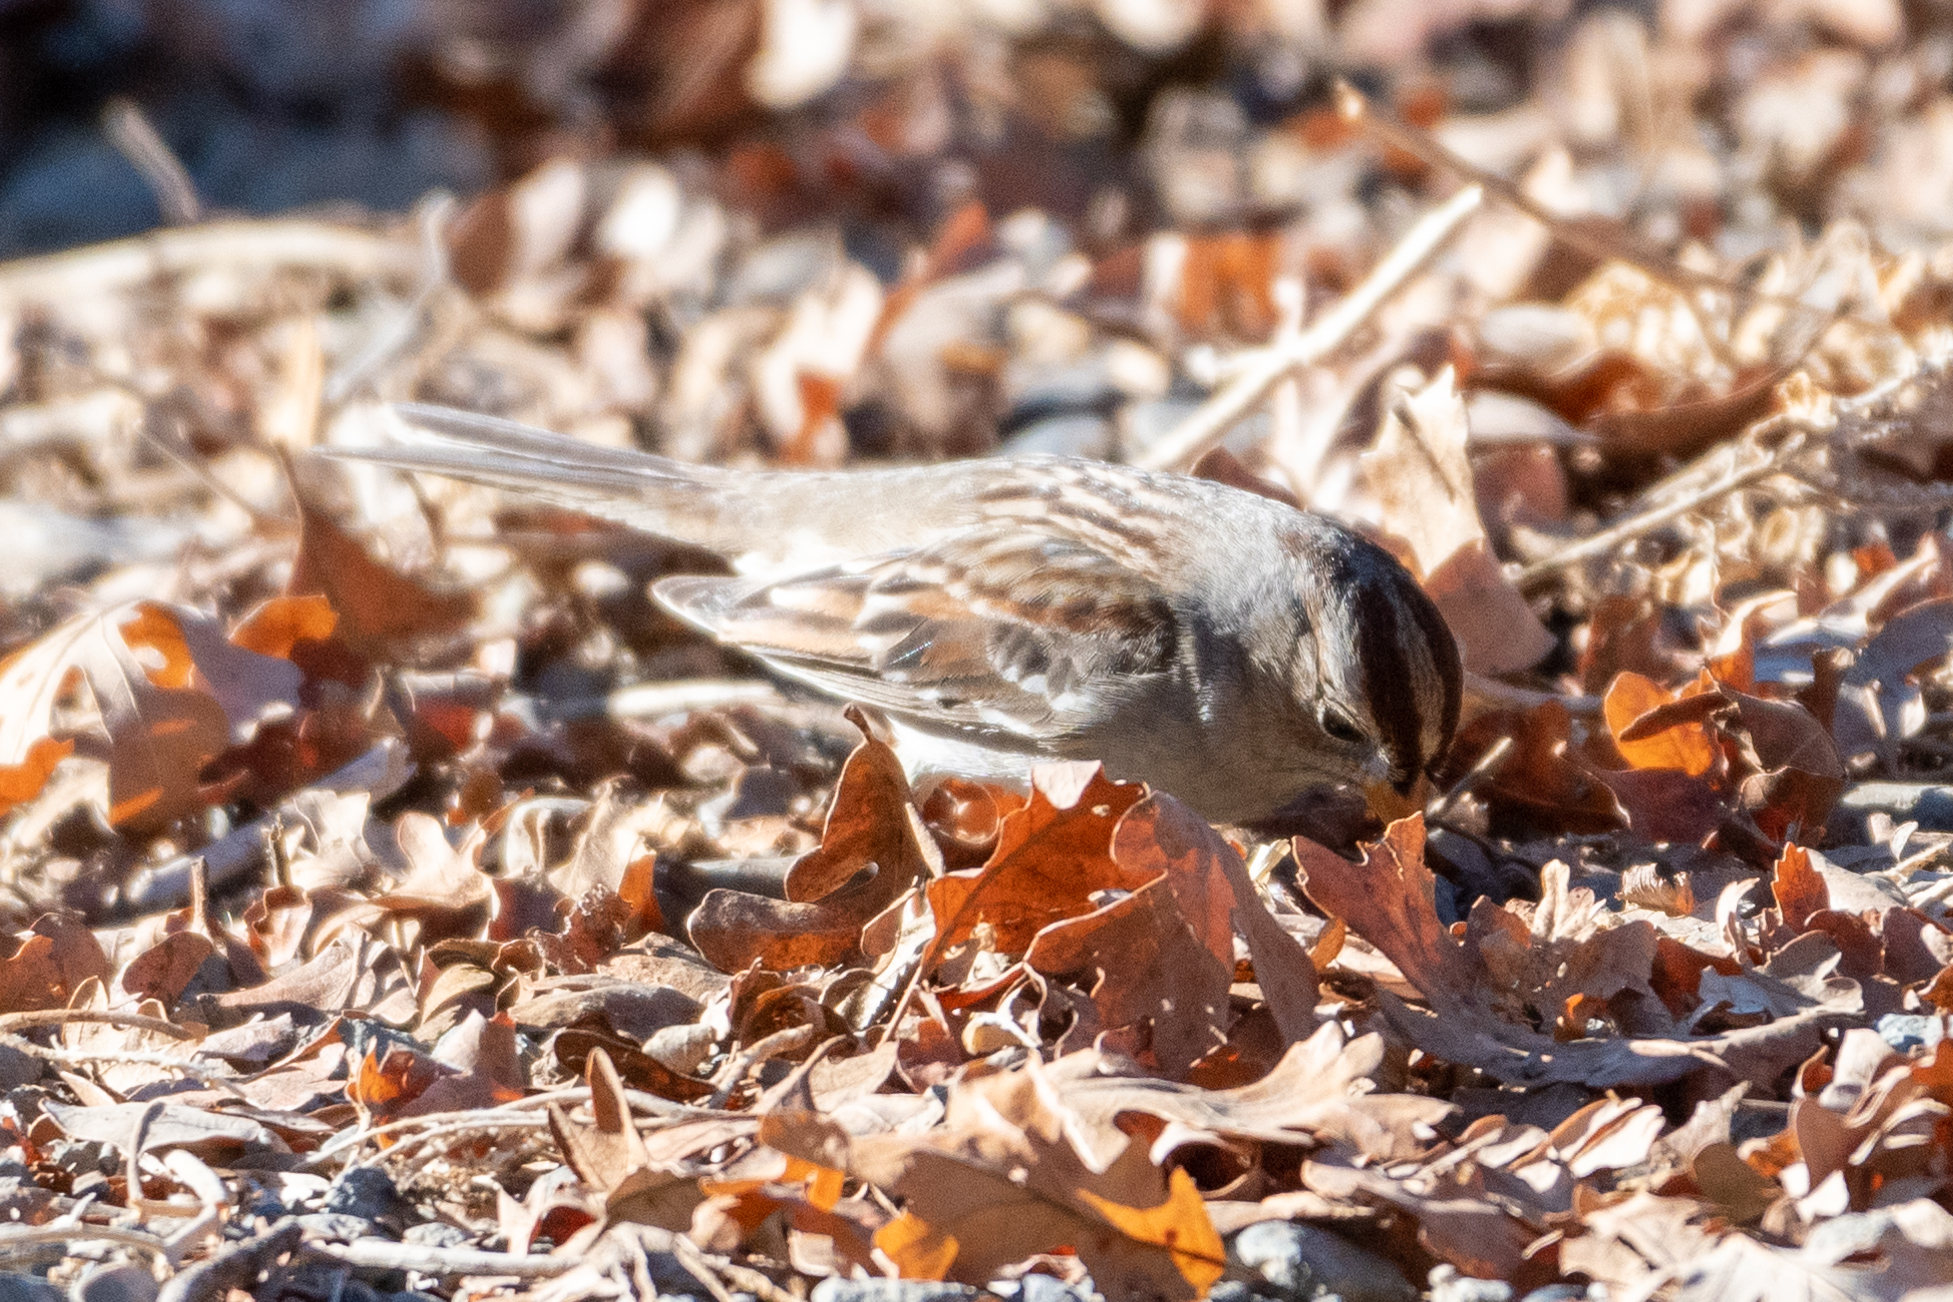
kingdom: Animalia
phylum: Chordata
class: Aves
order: Passeriformes
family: Passerellidae
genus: Zonotrichia
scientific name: Zonotrichia leucophrys
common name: White-crowned sparrow
